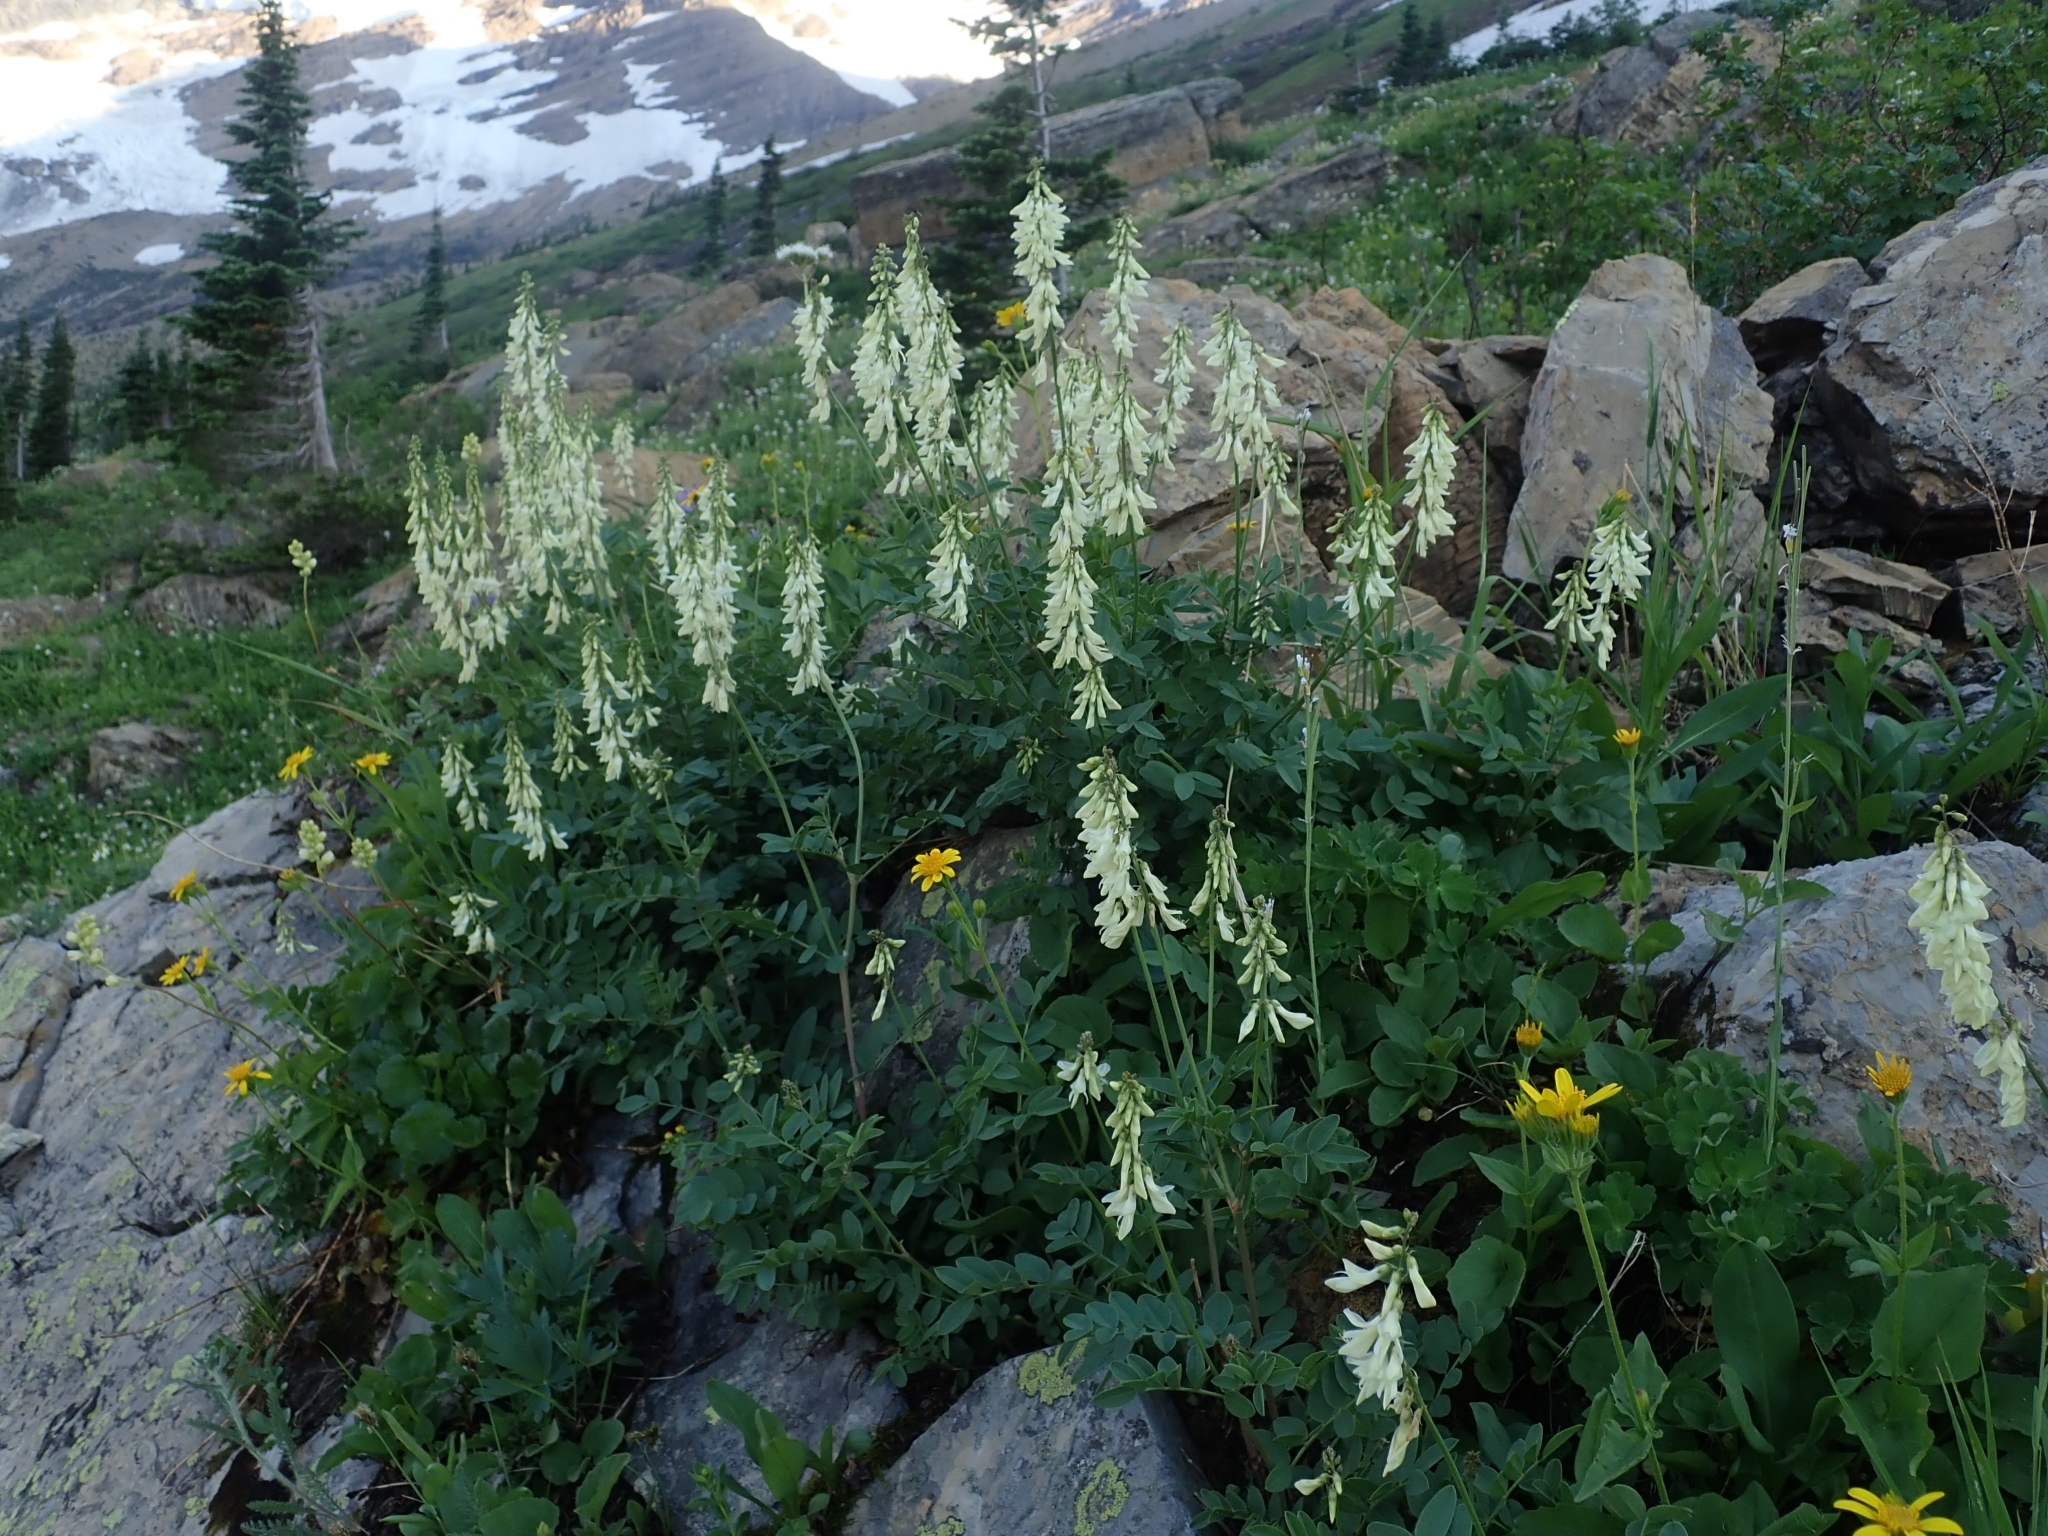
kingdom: Plantae
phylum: Tracheophyta
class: Magnoliopsida
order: Fabales
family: Fabaceae
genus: Hedysarum
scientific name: Hedysarum sulphurescens
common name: Sulphur hedysarum
